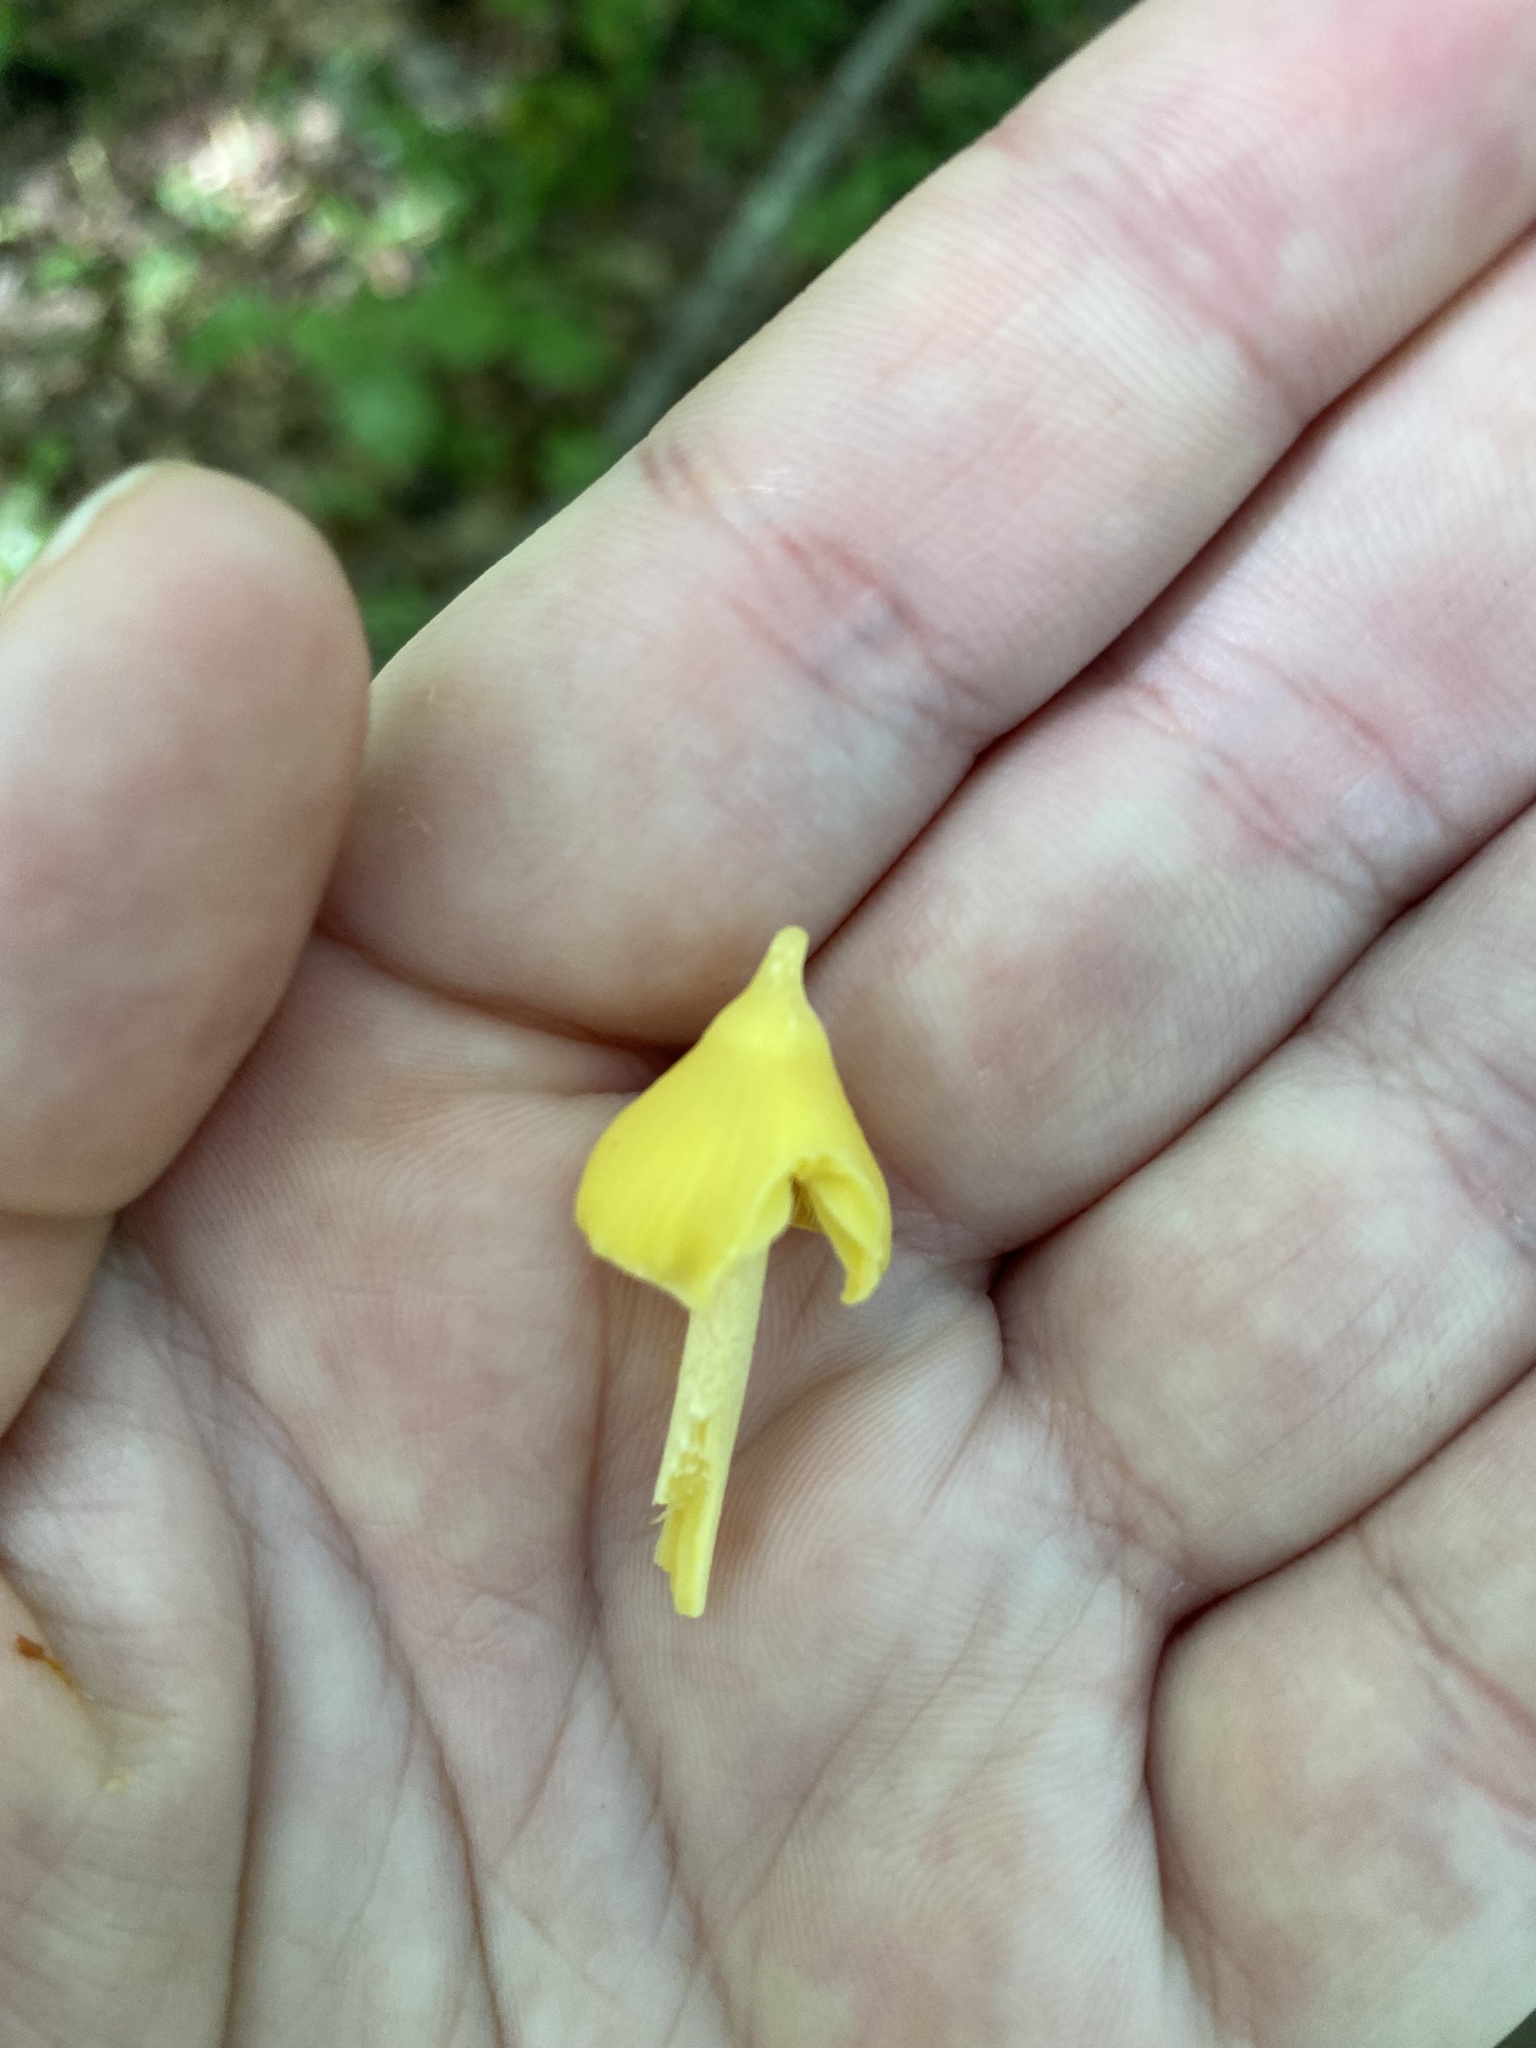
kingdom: Fungi
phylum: Basidiomycota
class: Agaricomycetes
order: Agaricales
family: Entolomataceae
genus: Entoloma
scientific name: Entoloma murrayi
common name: Yellow unicorn entoloma
